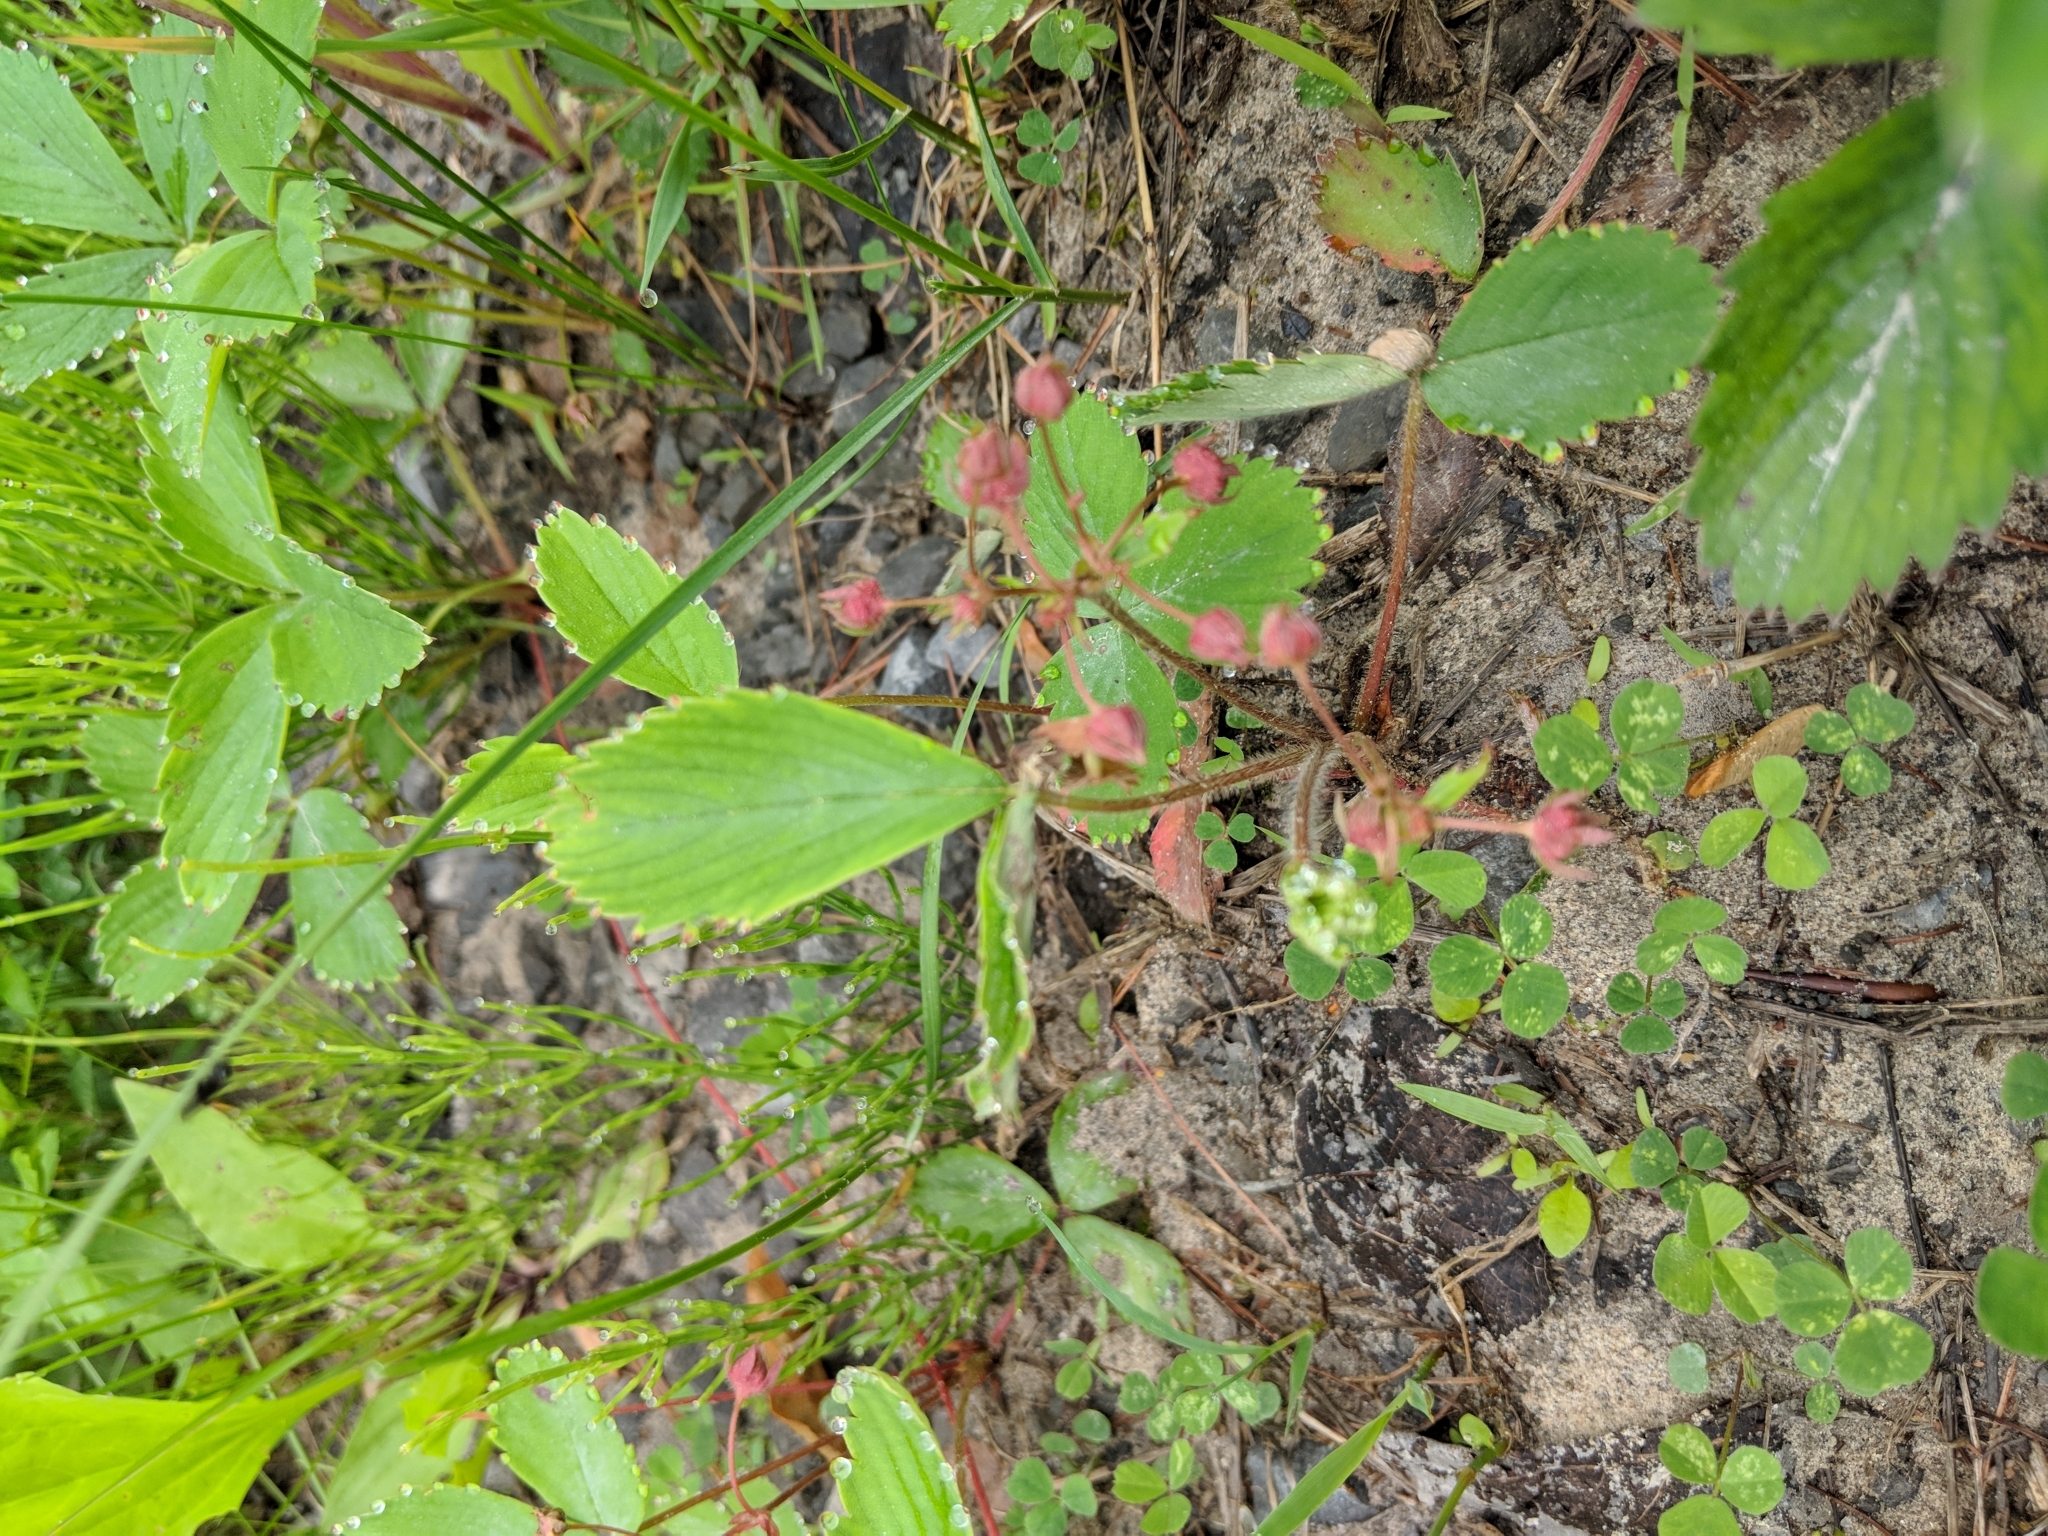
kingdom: Plantae
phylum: Tracheophyta
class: Magnoliopsida
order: Rosales
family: Rosaceae
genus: Fragaria
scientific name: Fragaria virginiana
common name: Thickleaved wild strawberry
